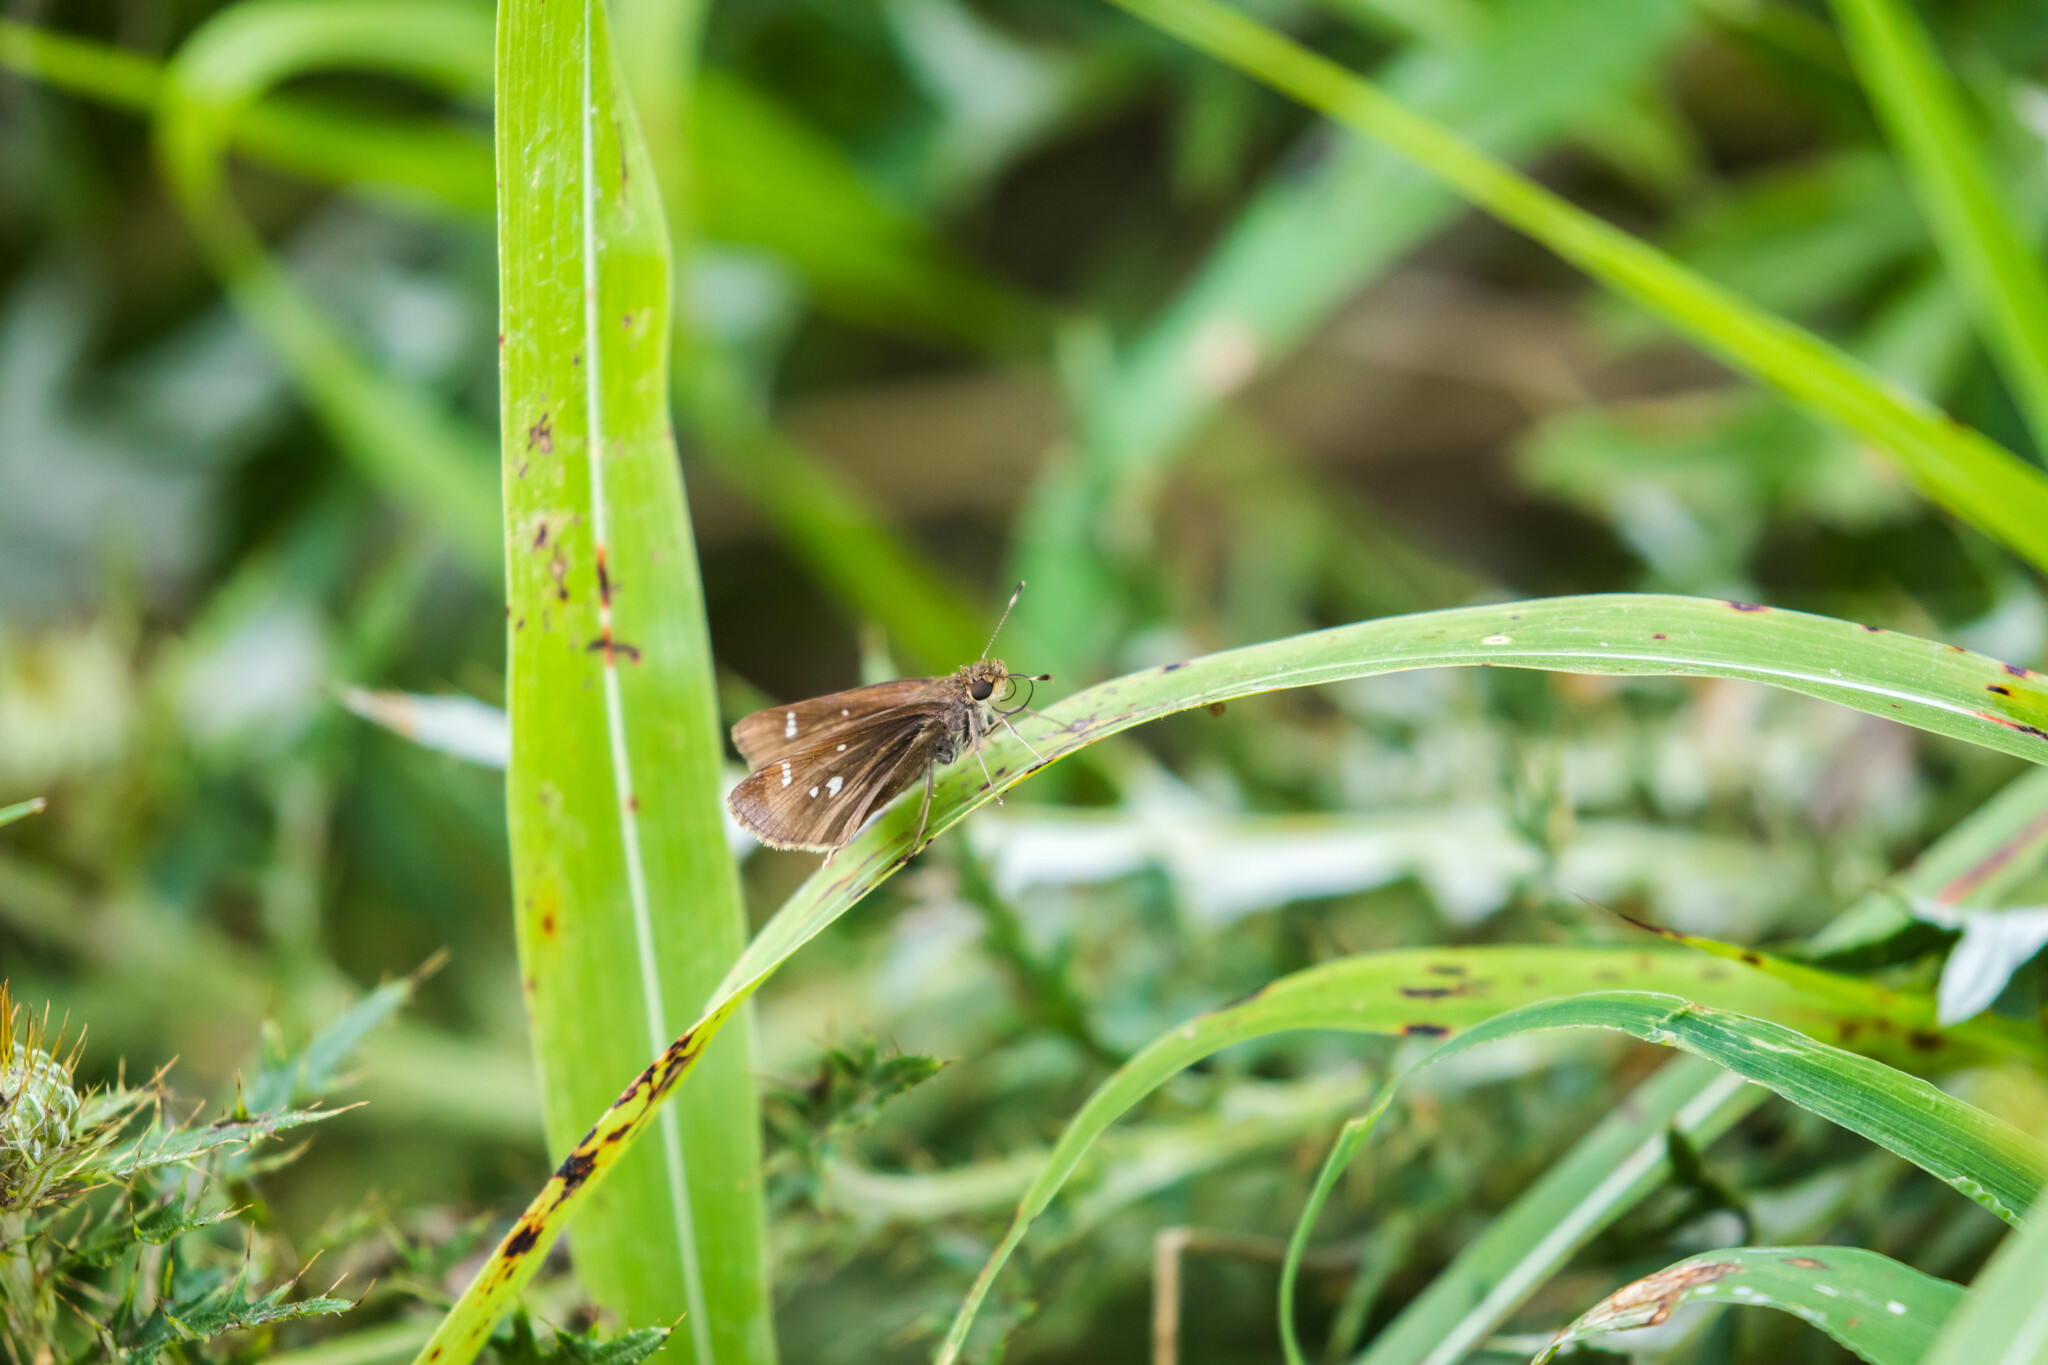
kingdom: Animalia
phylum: Arthropoda
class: Insecta
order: Lepidoptera
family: Hesperiidae
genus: Lerema
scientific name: Lerema accius
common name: Clouded skipper
